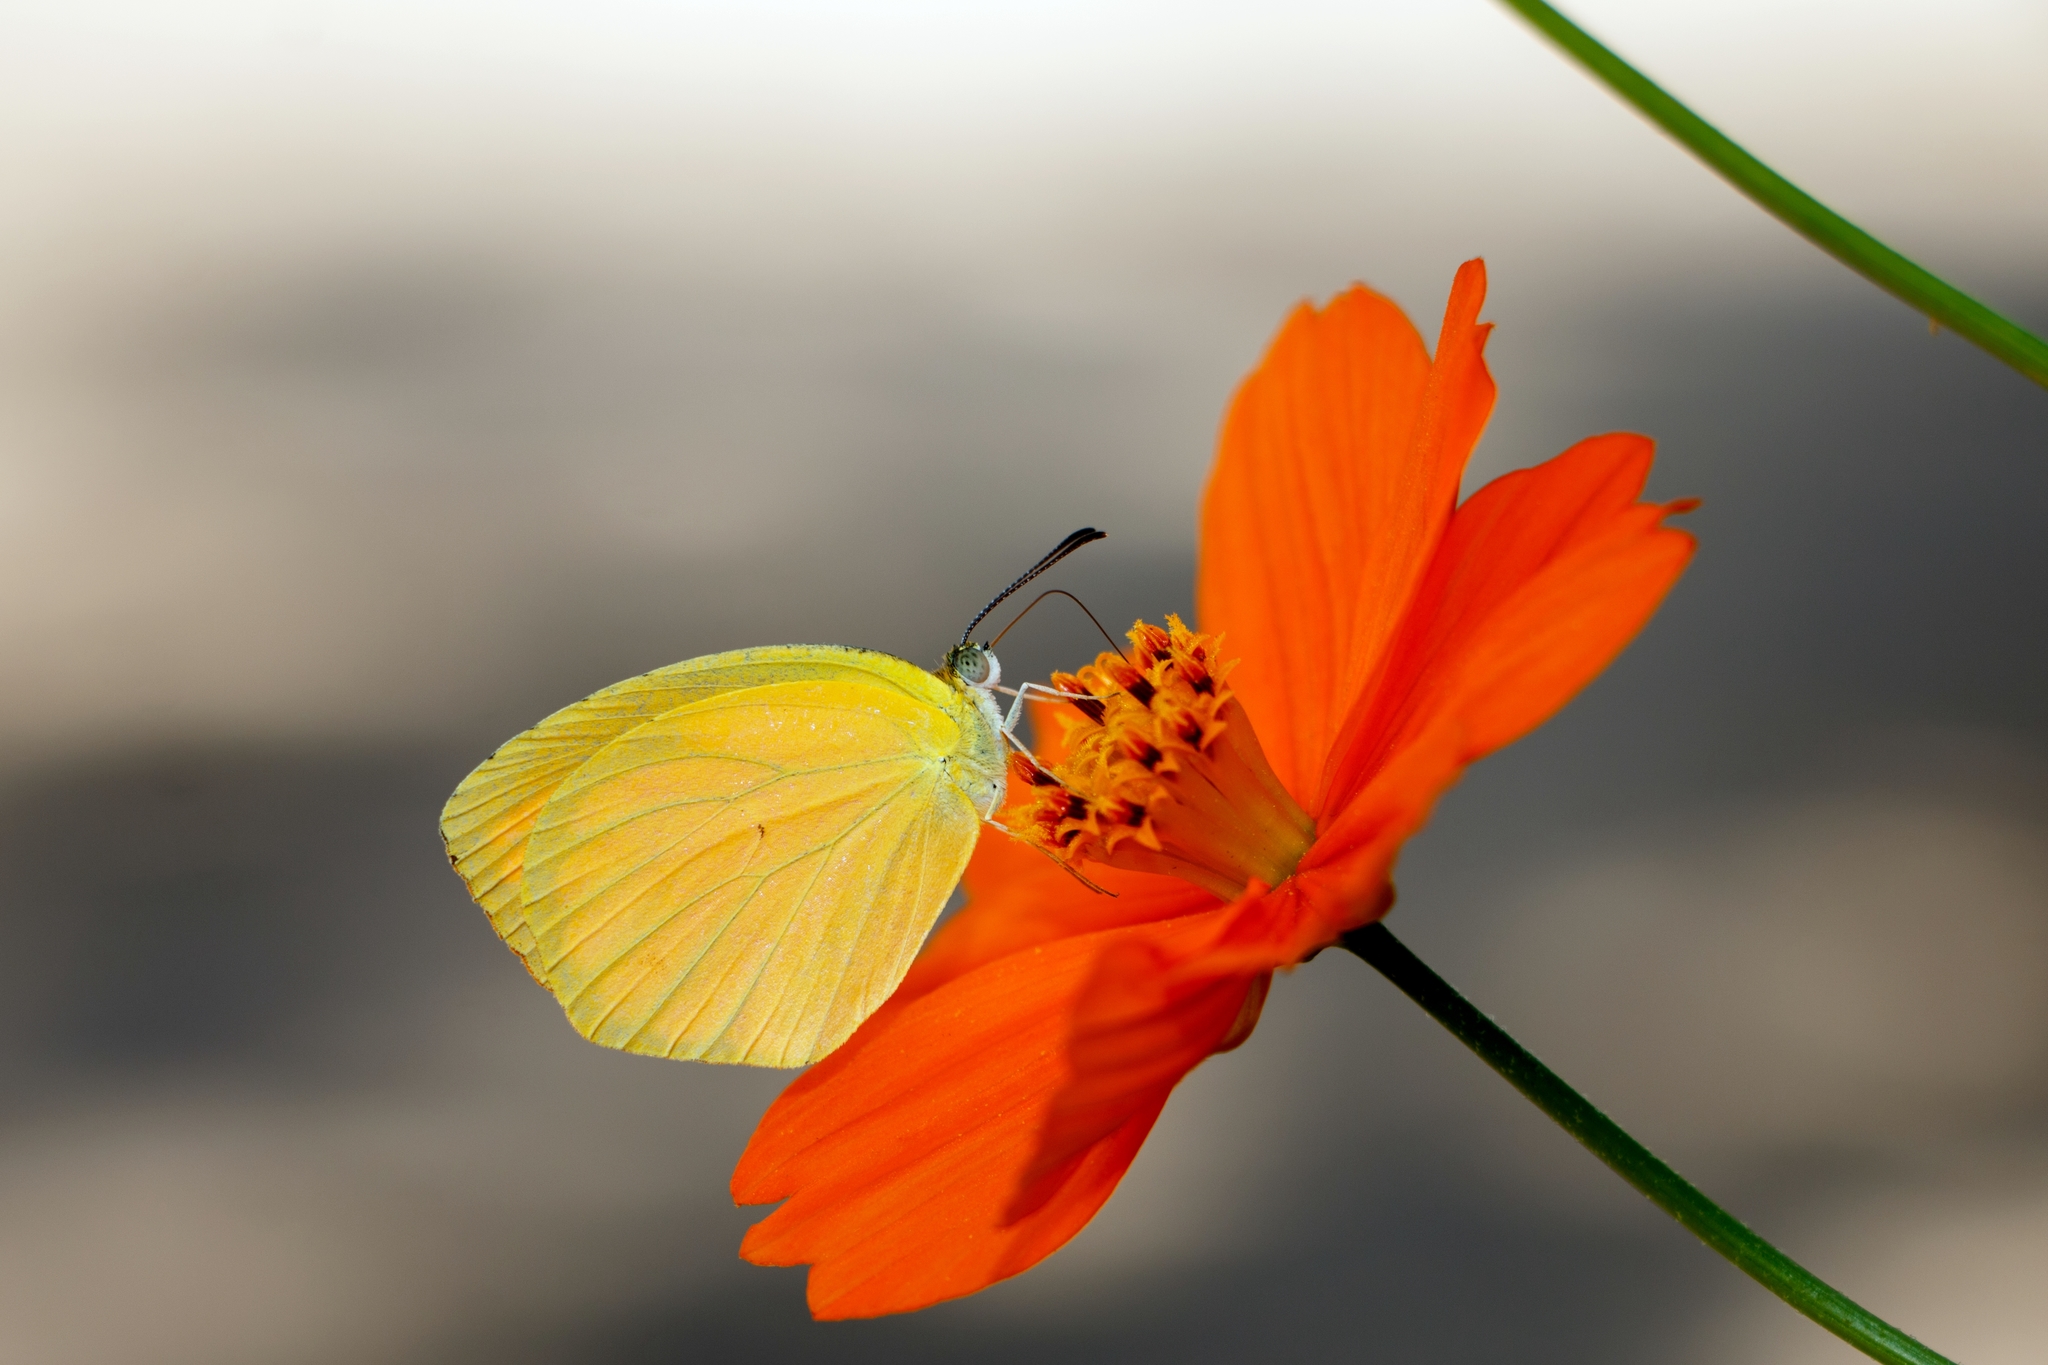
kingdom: Animalia
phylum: Arthropoda
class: Insecta
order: Lepidoptera
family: Pieridae
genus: Pyrisitia
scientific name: Pyrisitia proterpia
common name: Tailed orange
